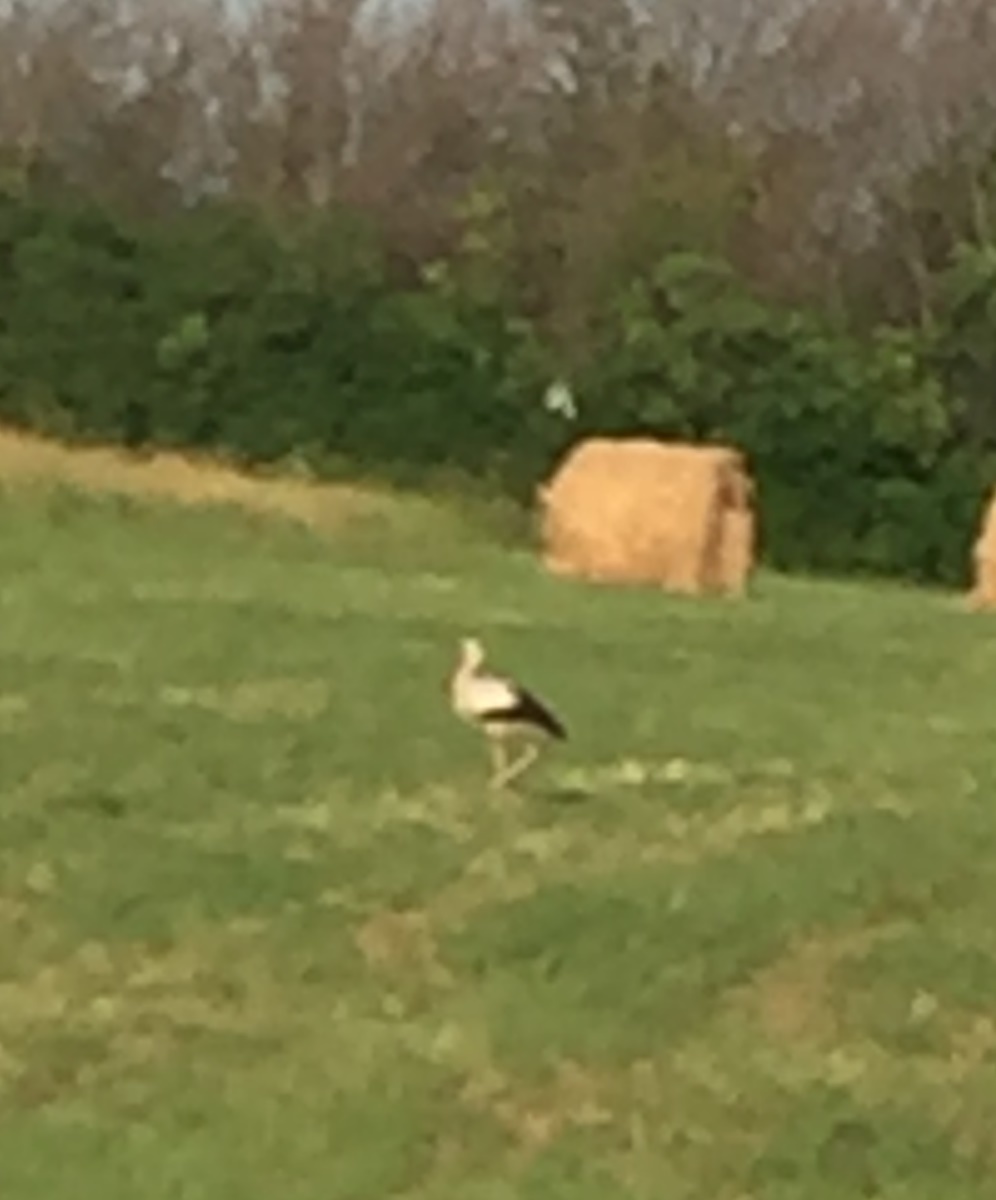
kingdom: Animalia
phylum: Chordata
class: Aves
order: Ciconiiformes
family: Ciconiidae
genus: Ciconia
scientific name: Ciconia ciconia
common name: White stork
